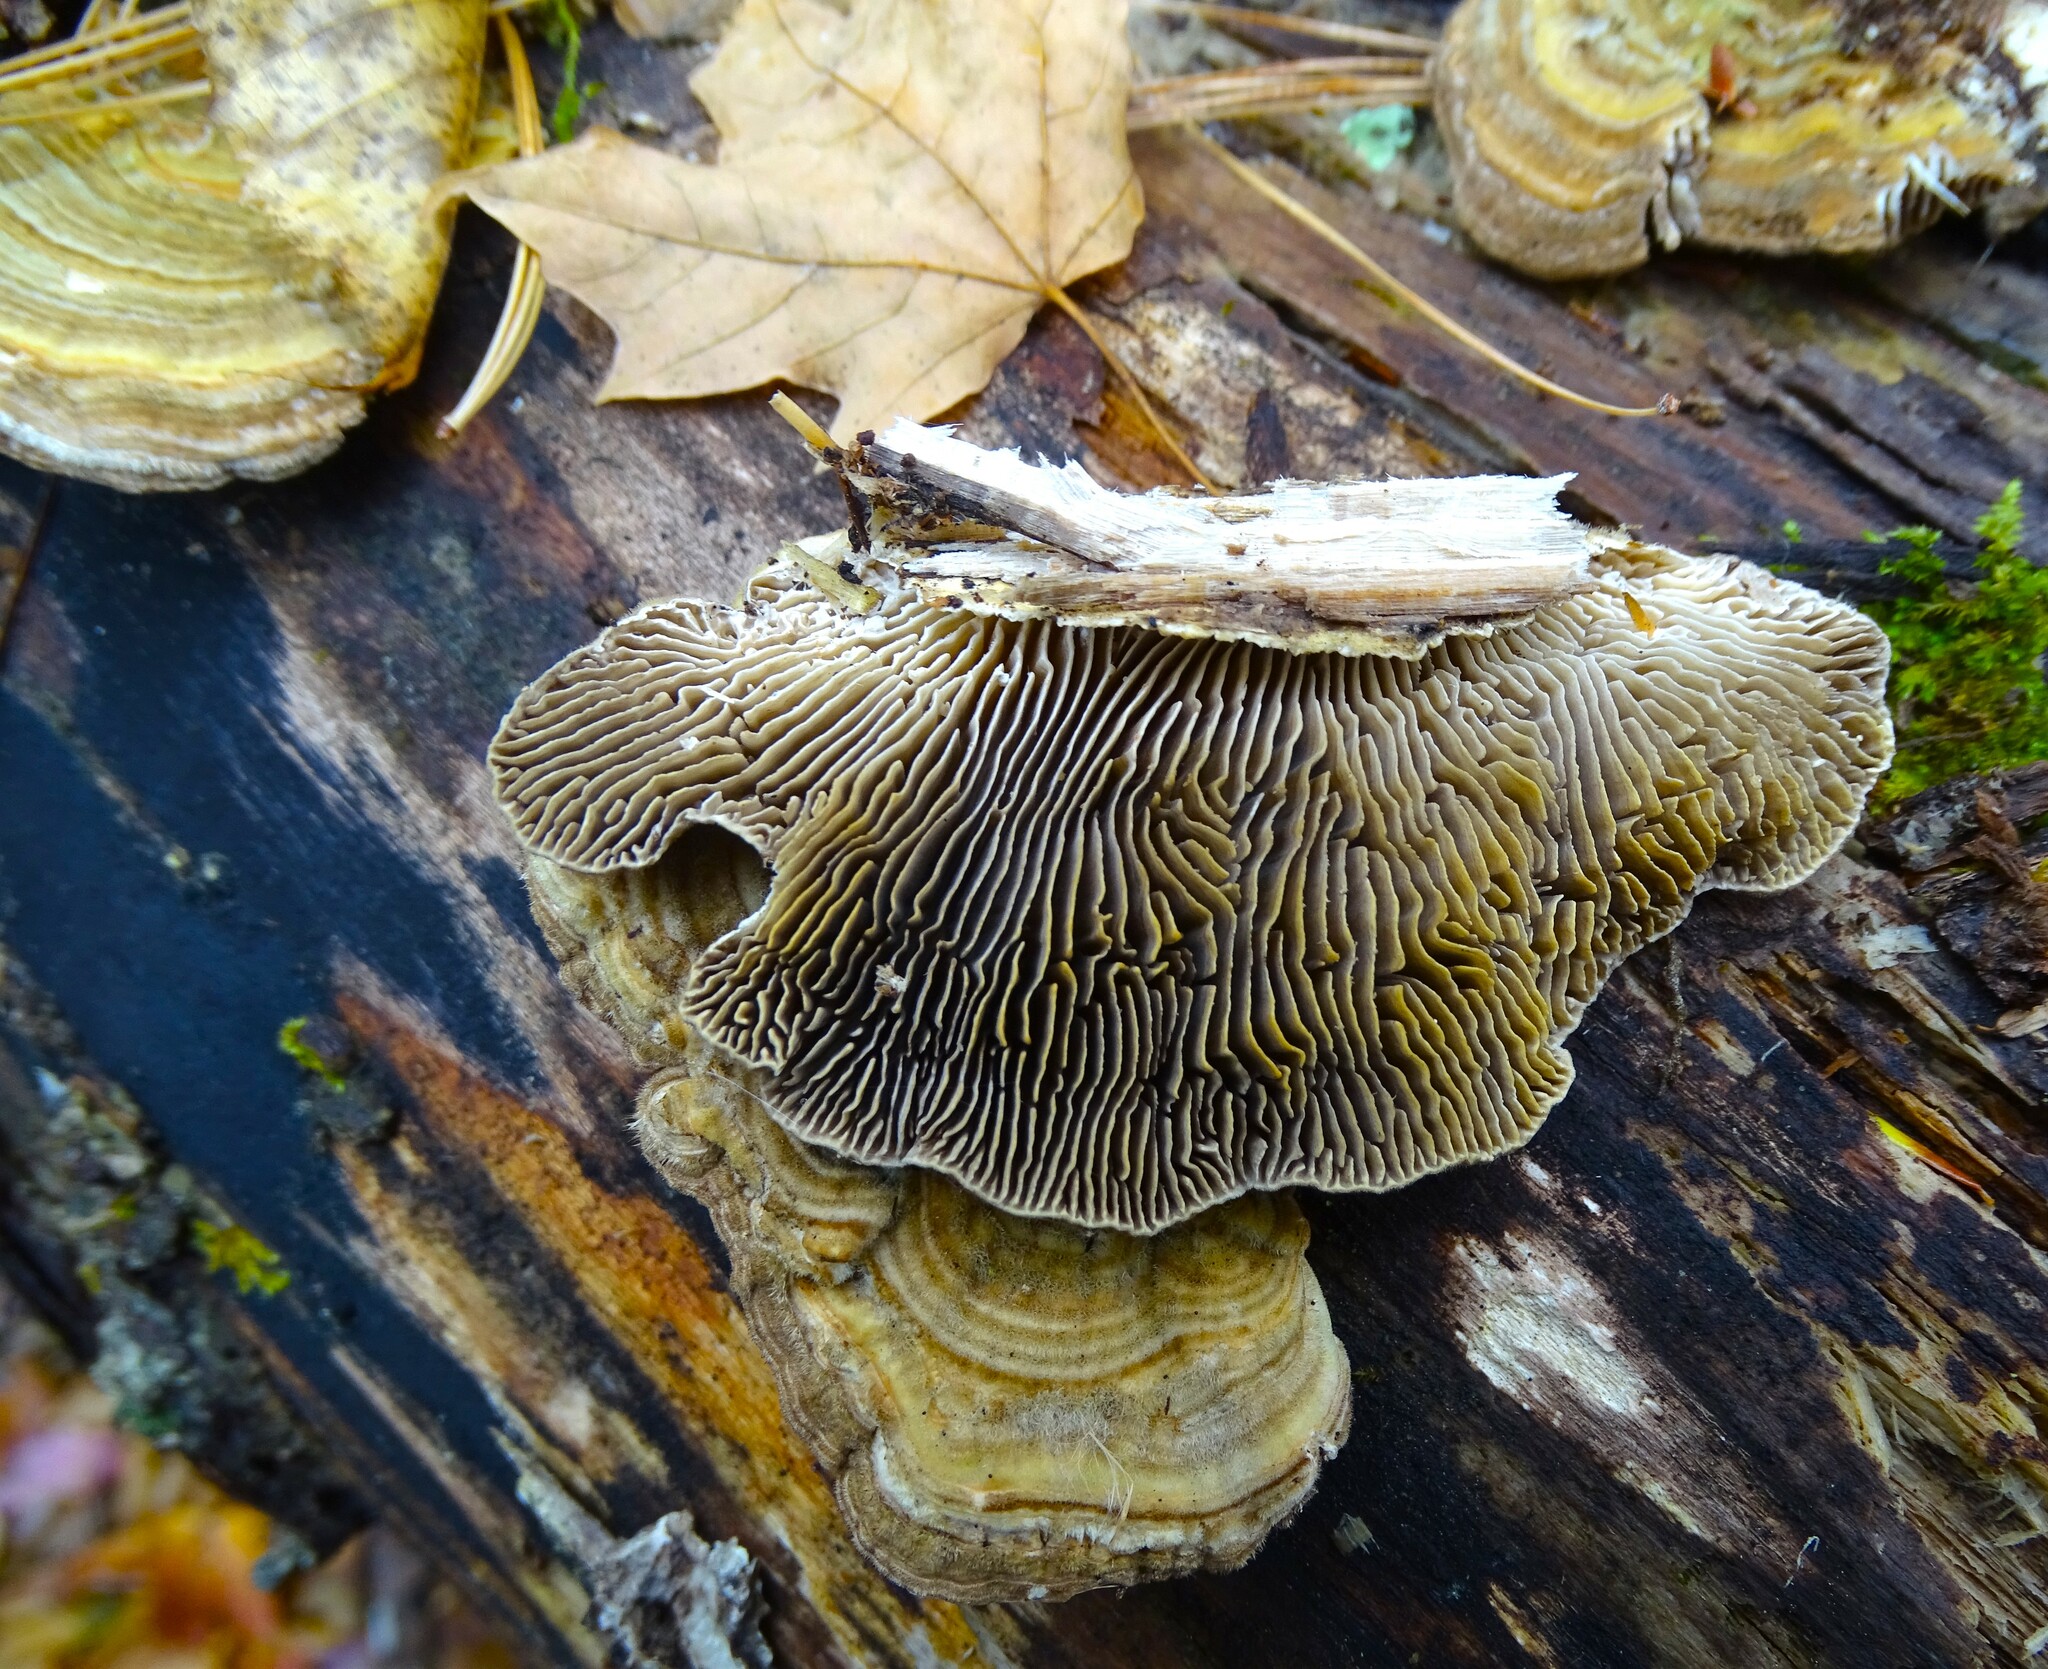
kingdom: Fungi
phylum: Basidiomycota
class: Agaricomycetes
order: Polyporales
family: Polyporaceae
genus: Lenzites
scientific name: Lenzites betulinus
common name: Birch mazegill
